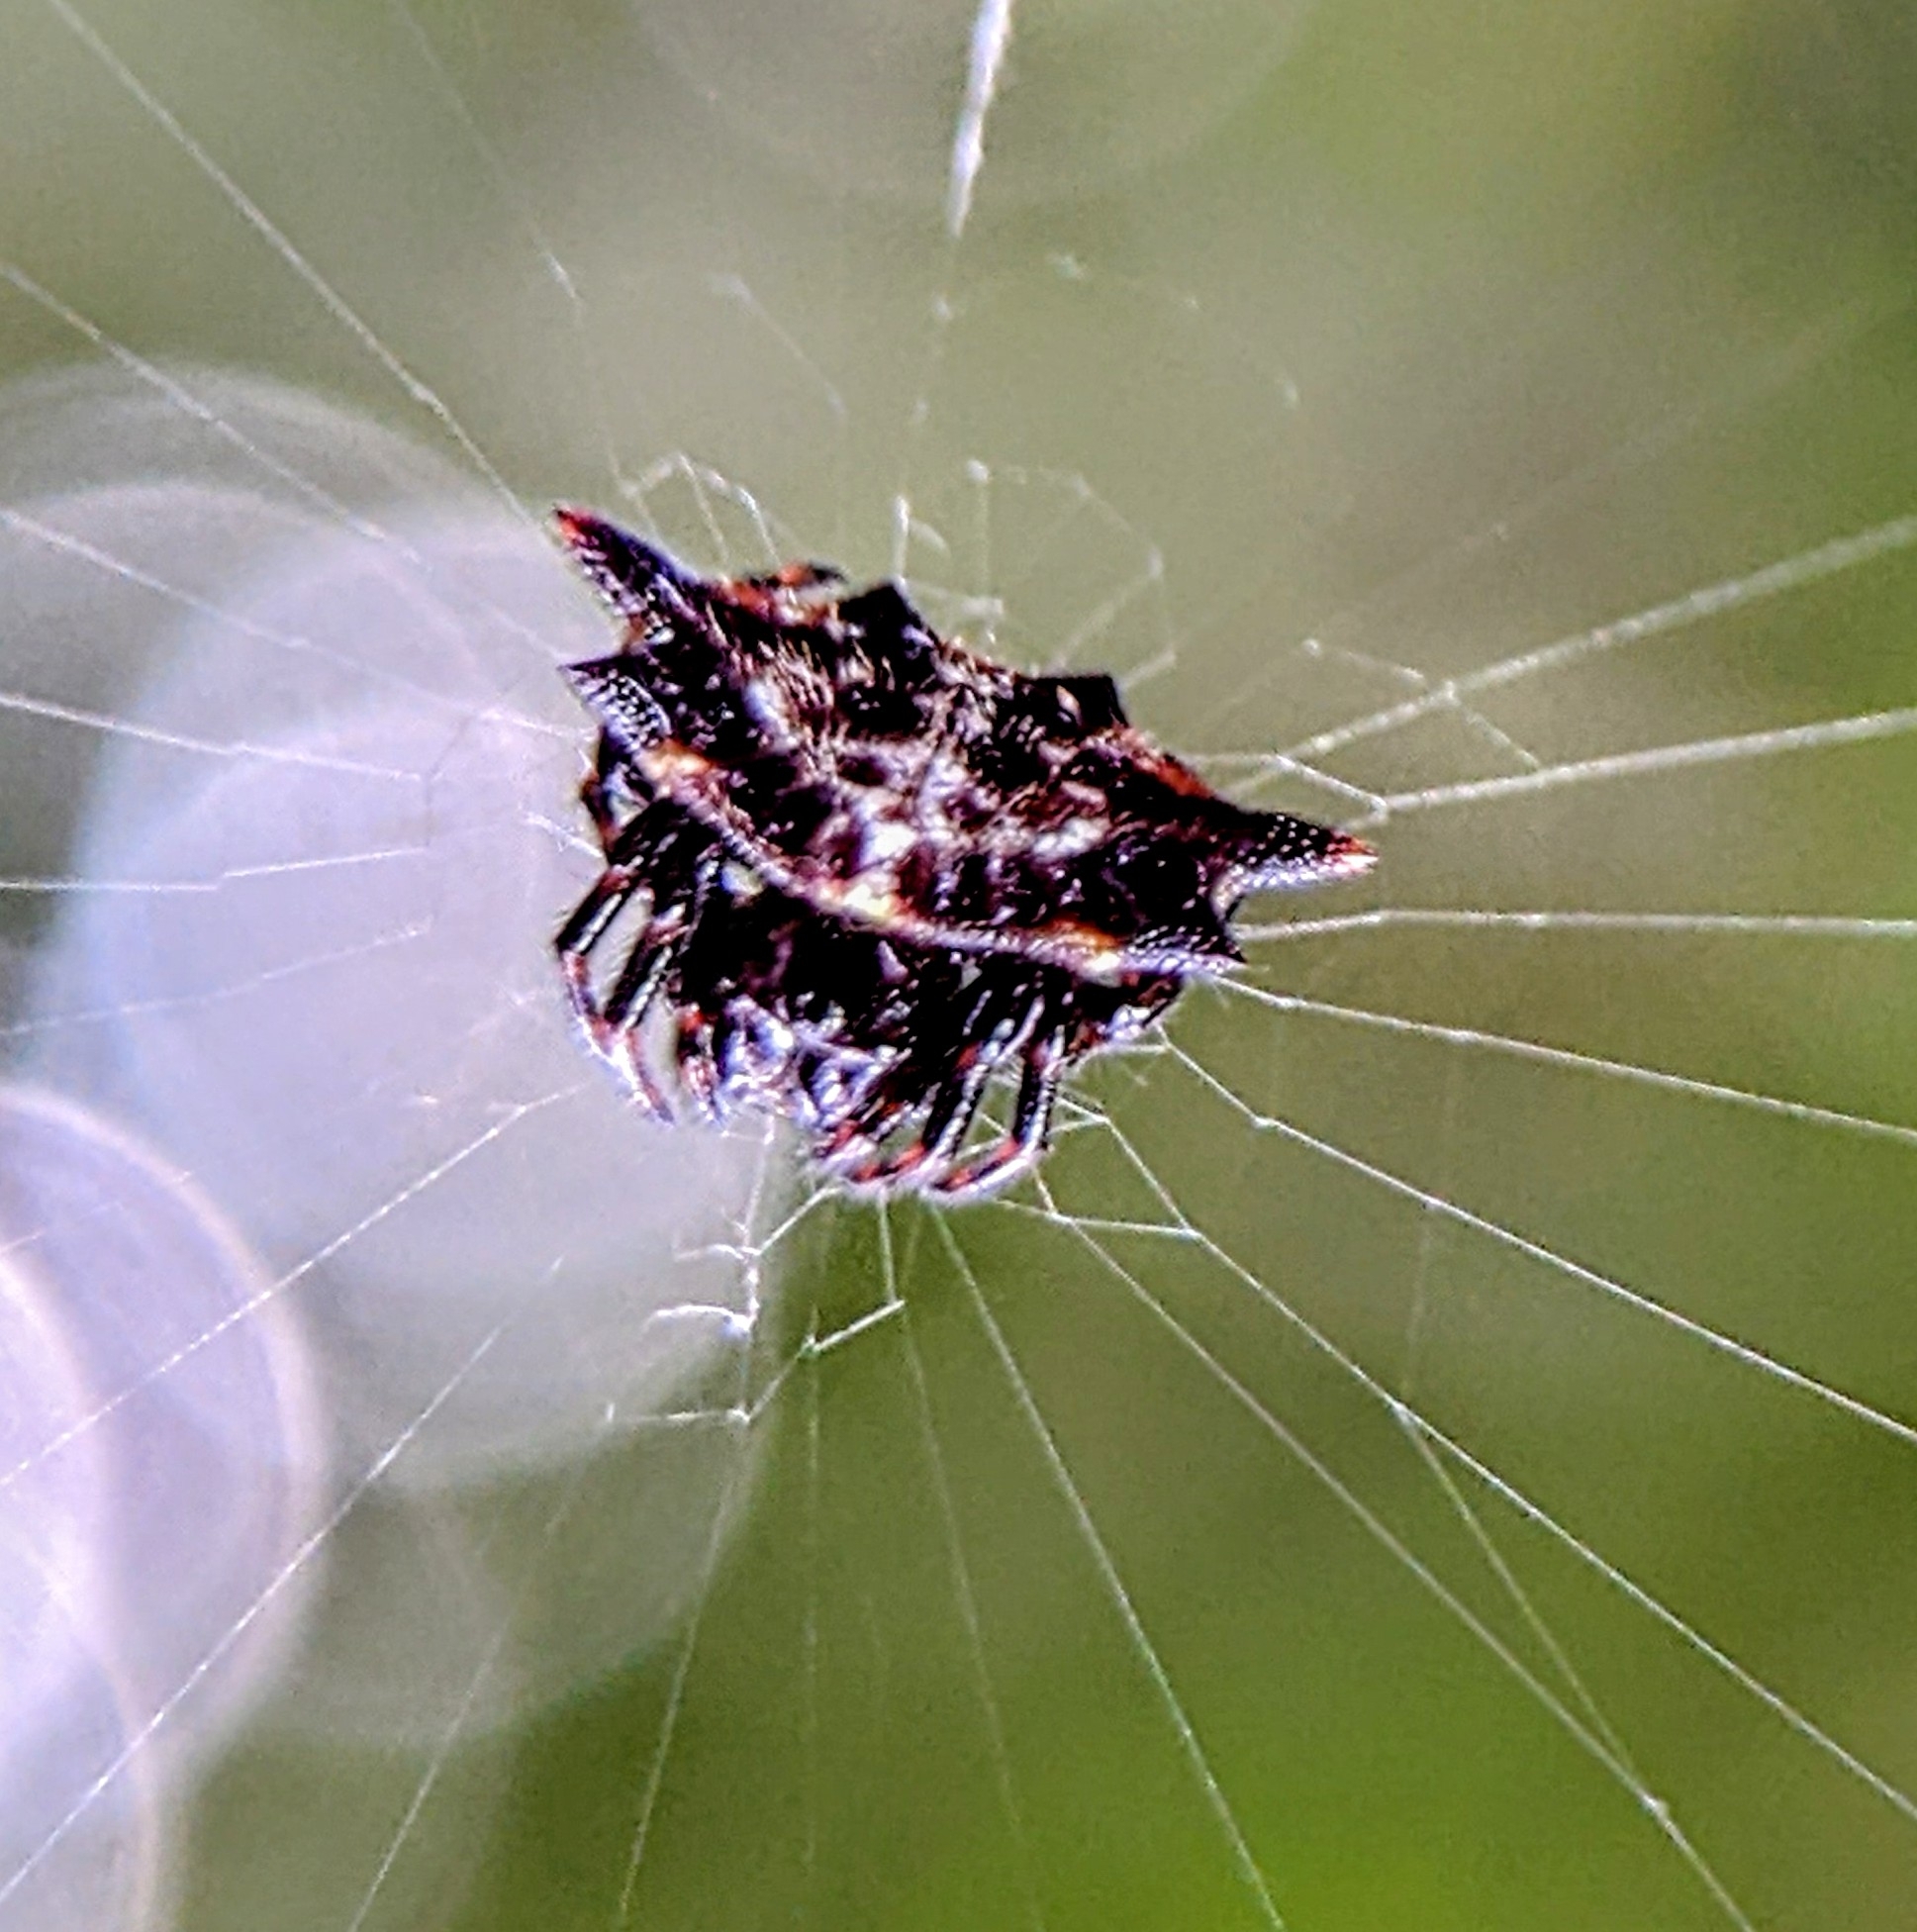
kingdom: Animalia
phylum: Arthropoda
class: Arachnida
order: Araneae
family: Araneidae
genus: Gasteracantha
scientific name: Gasteracantha kuhli
